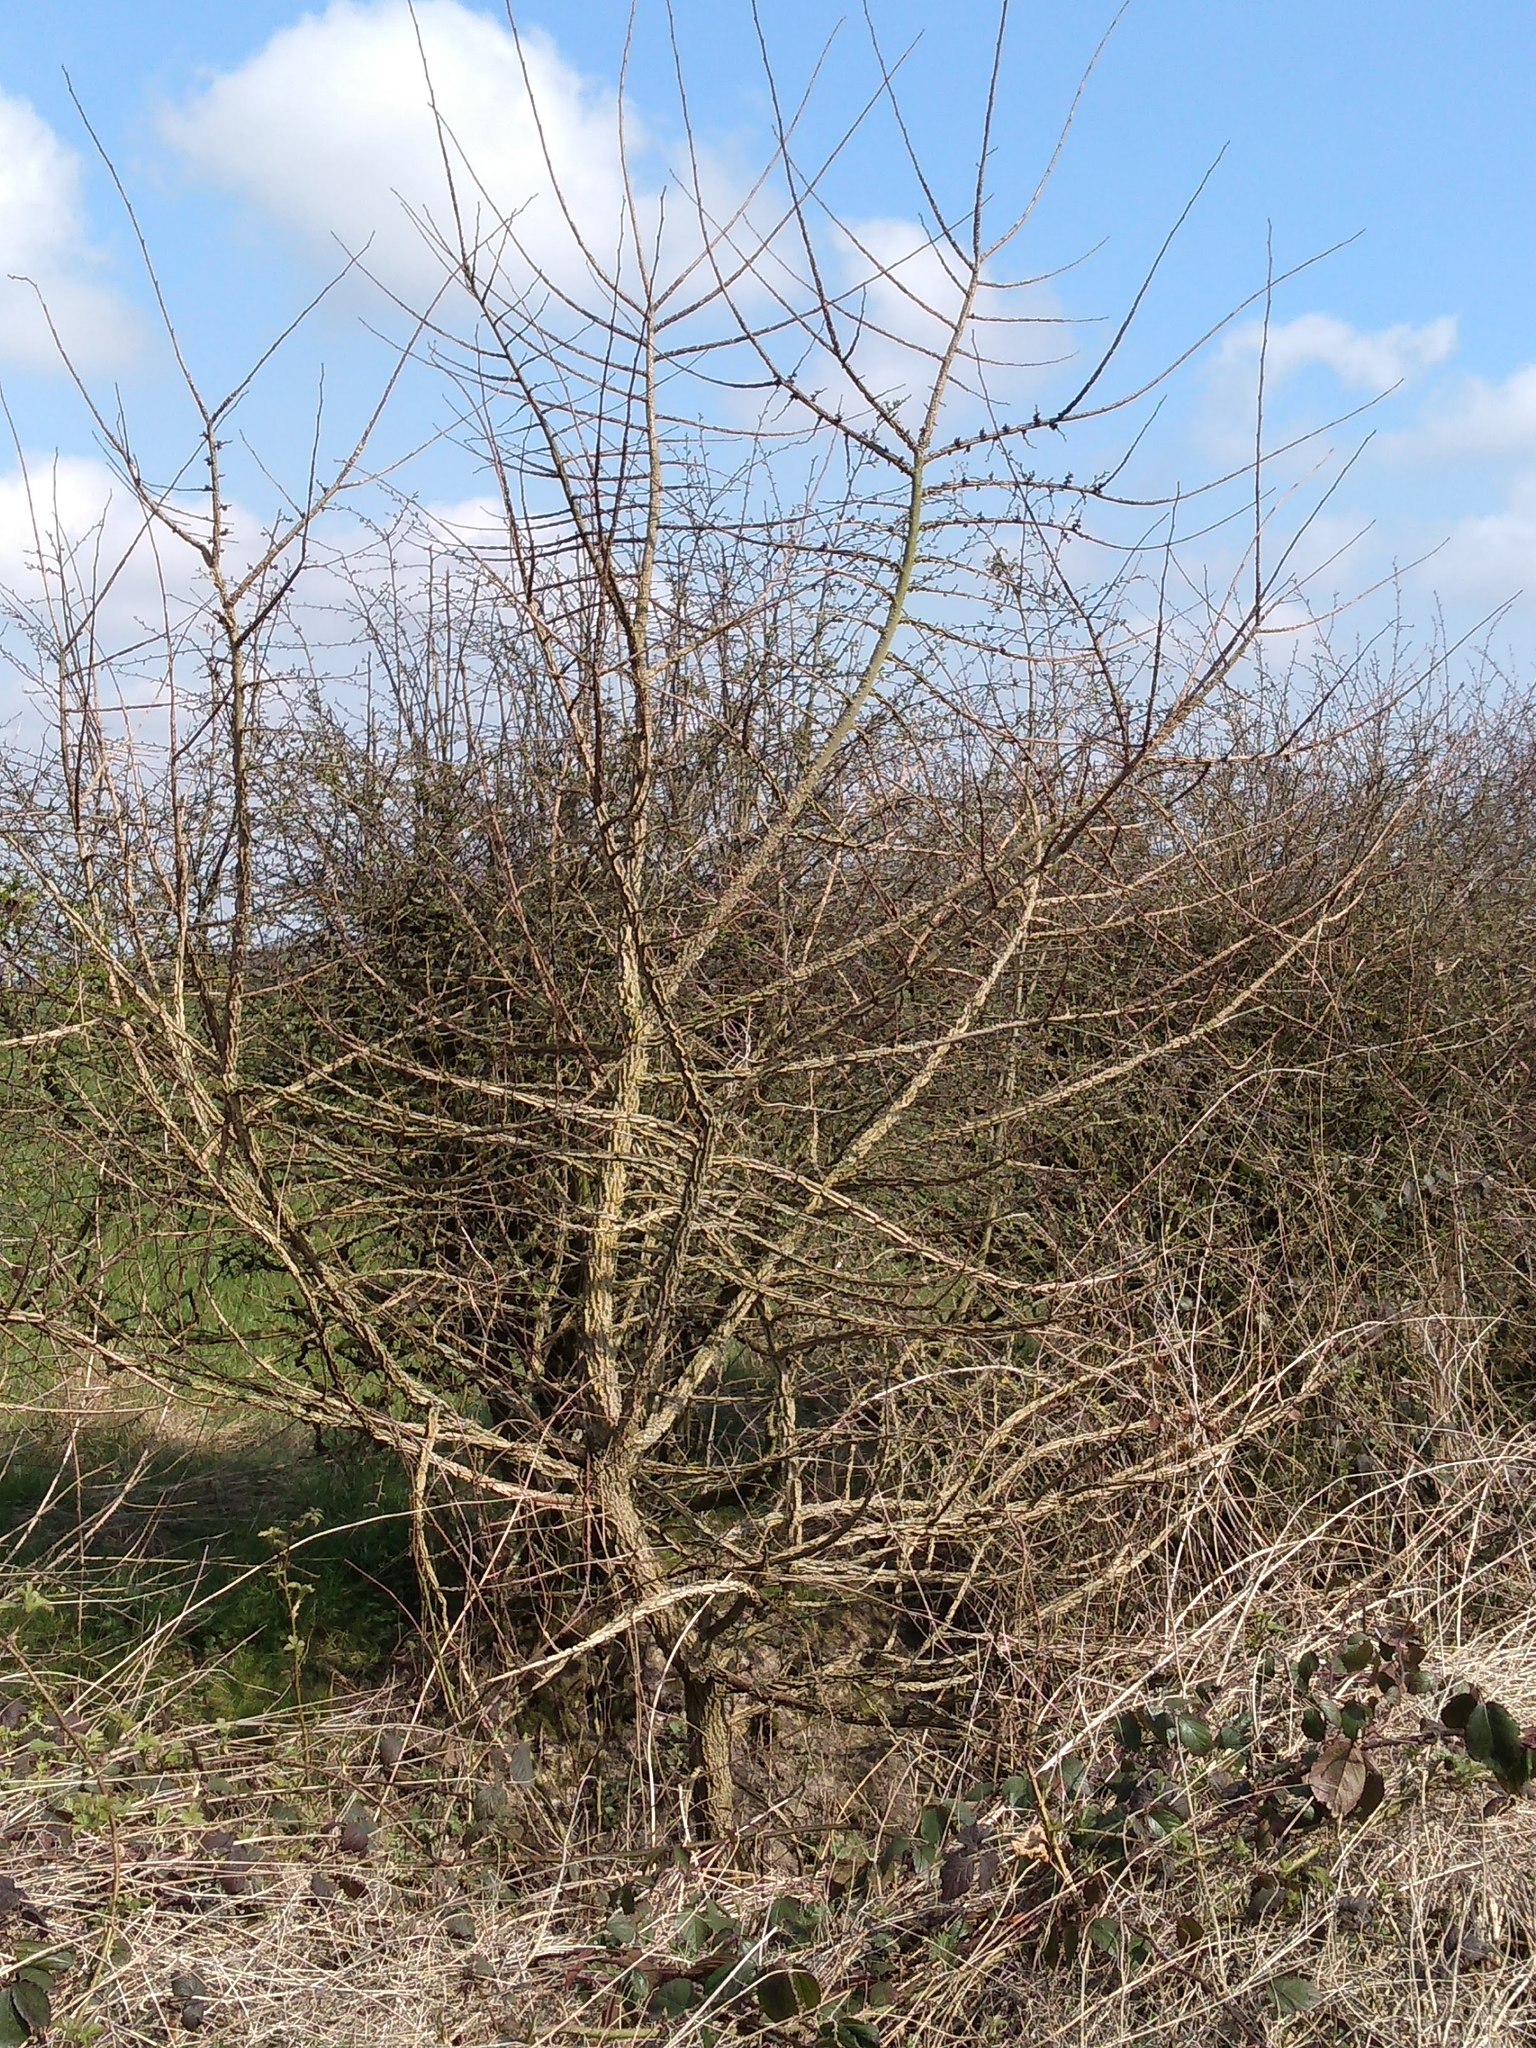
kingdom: Plantae
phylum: Tracheophyta
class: Magnoliopsida
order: Sapindales
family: Sapindaceae
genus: Acer
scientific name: Acer campestre
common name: Field maple
